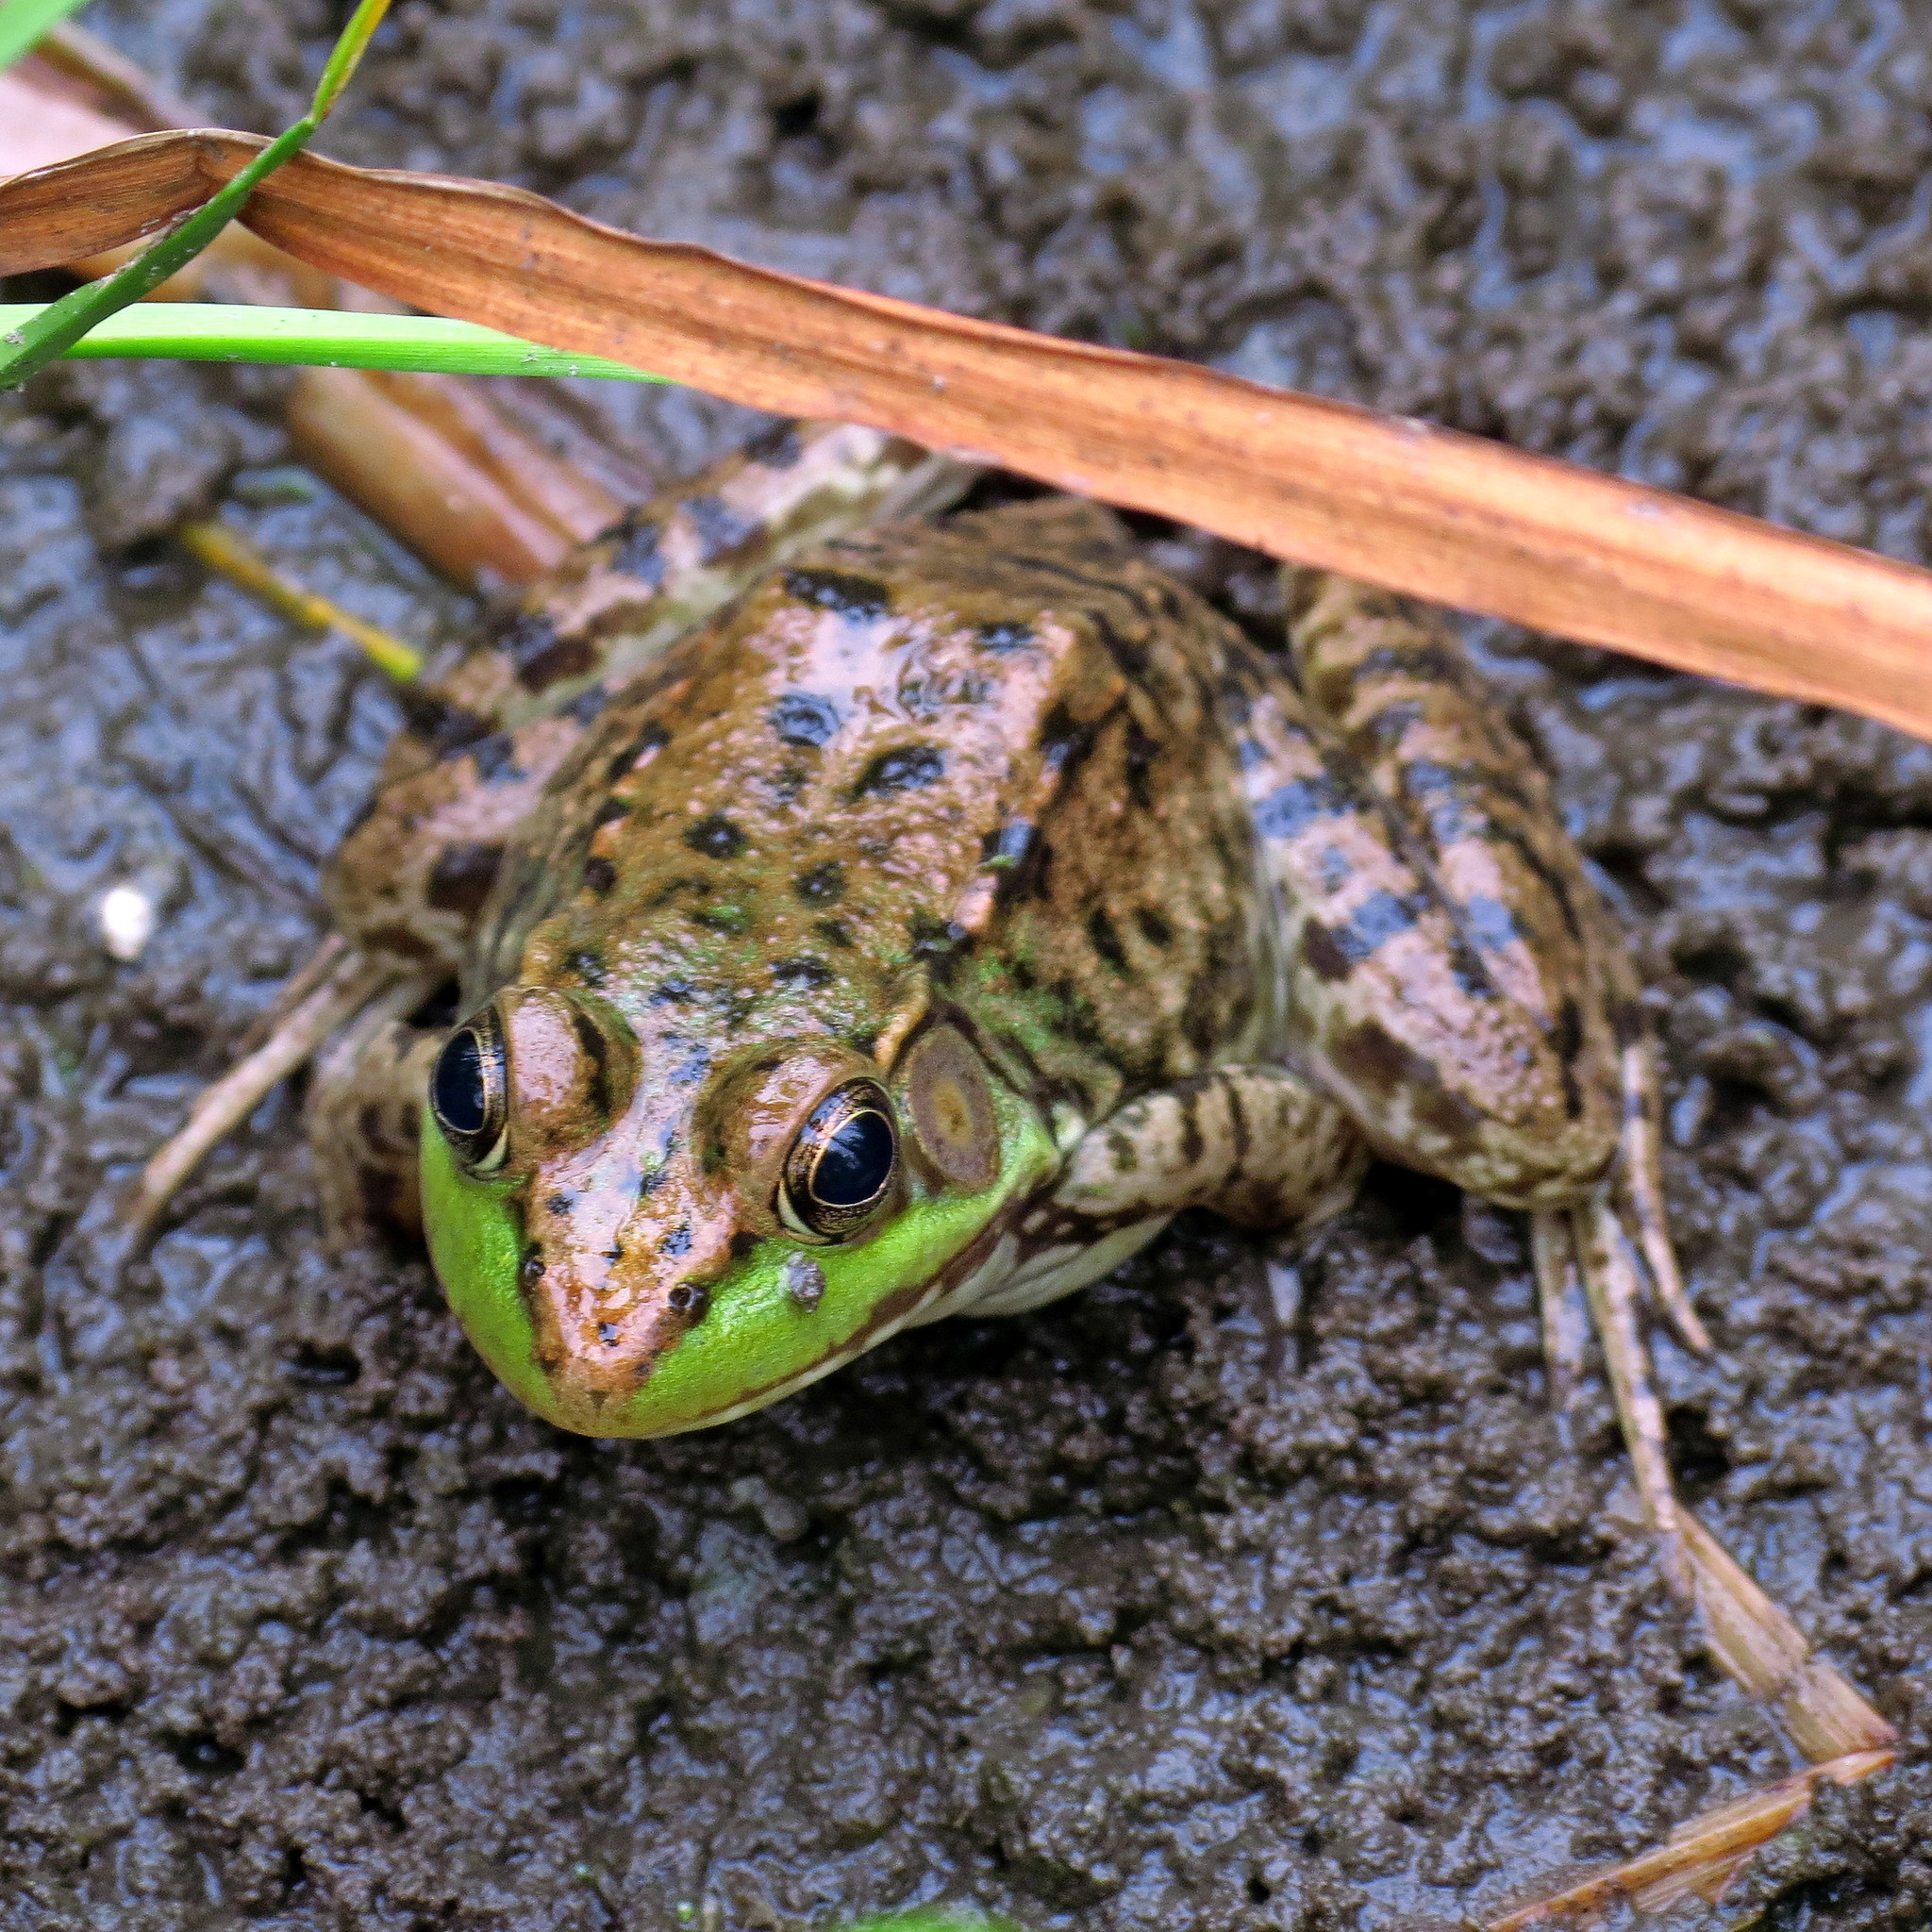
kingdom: Animalia
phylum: Chordata
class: Amphibia
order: Anura
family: Ranidae
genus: Lithobates
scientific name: Lithobates clamitans
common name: Green frog
